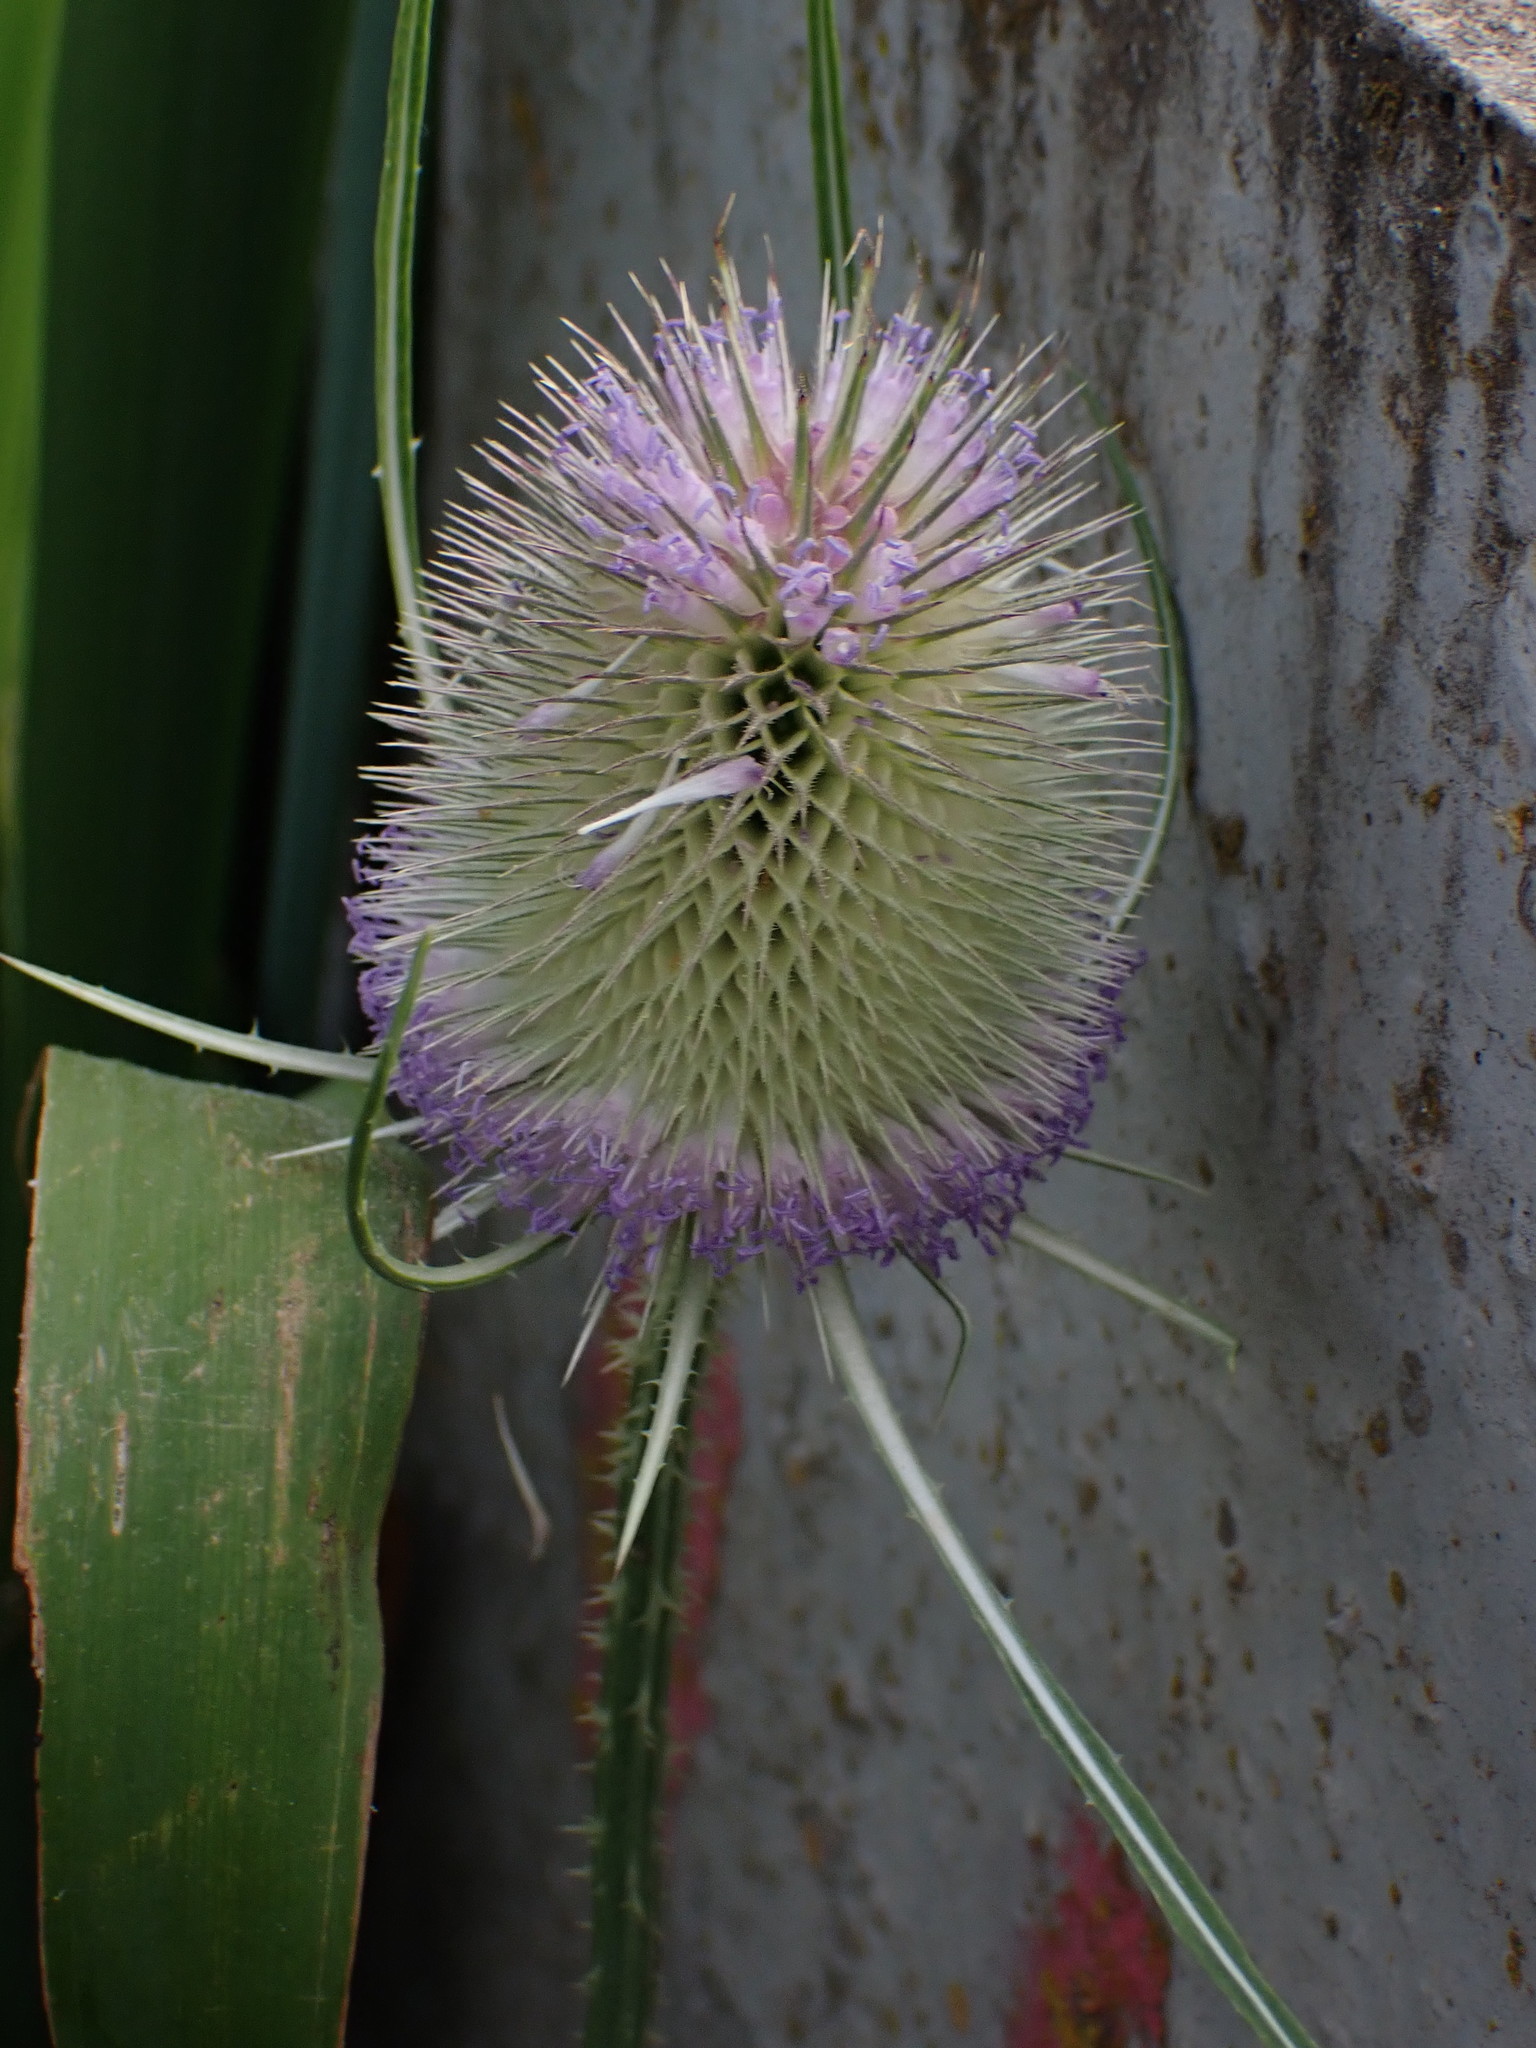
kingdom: Plantae
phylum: Tracheophyta
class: Magnoliopsida
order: Dipsacales
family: Caprifoliaceae
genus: Dipsacus
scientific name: Dipsacus fullonum
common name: Teasel
